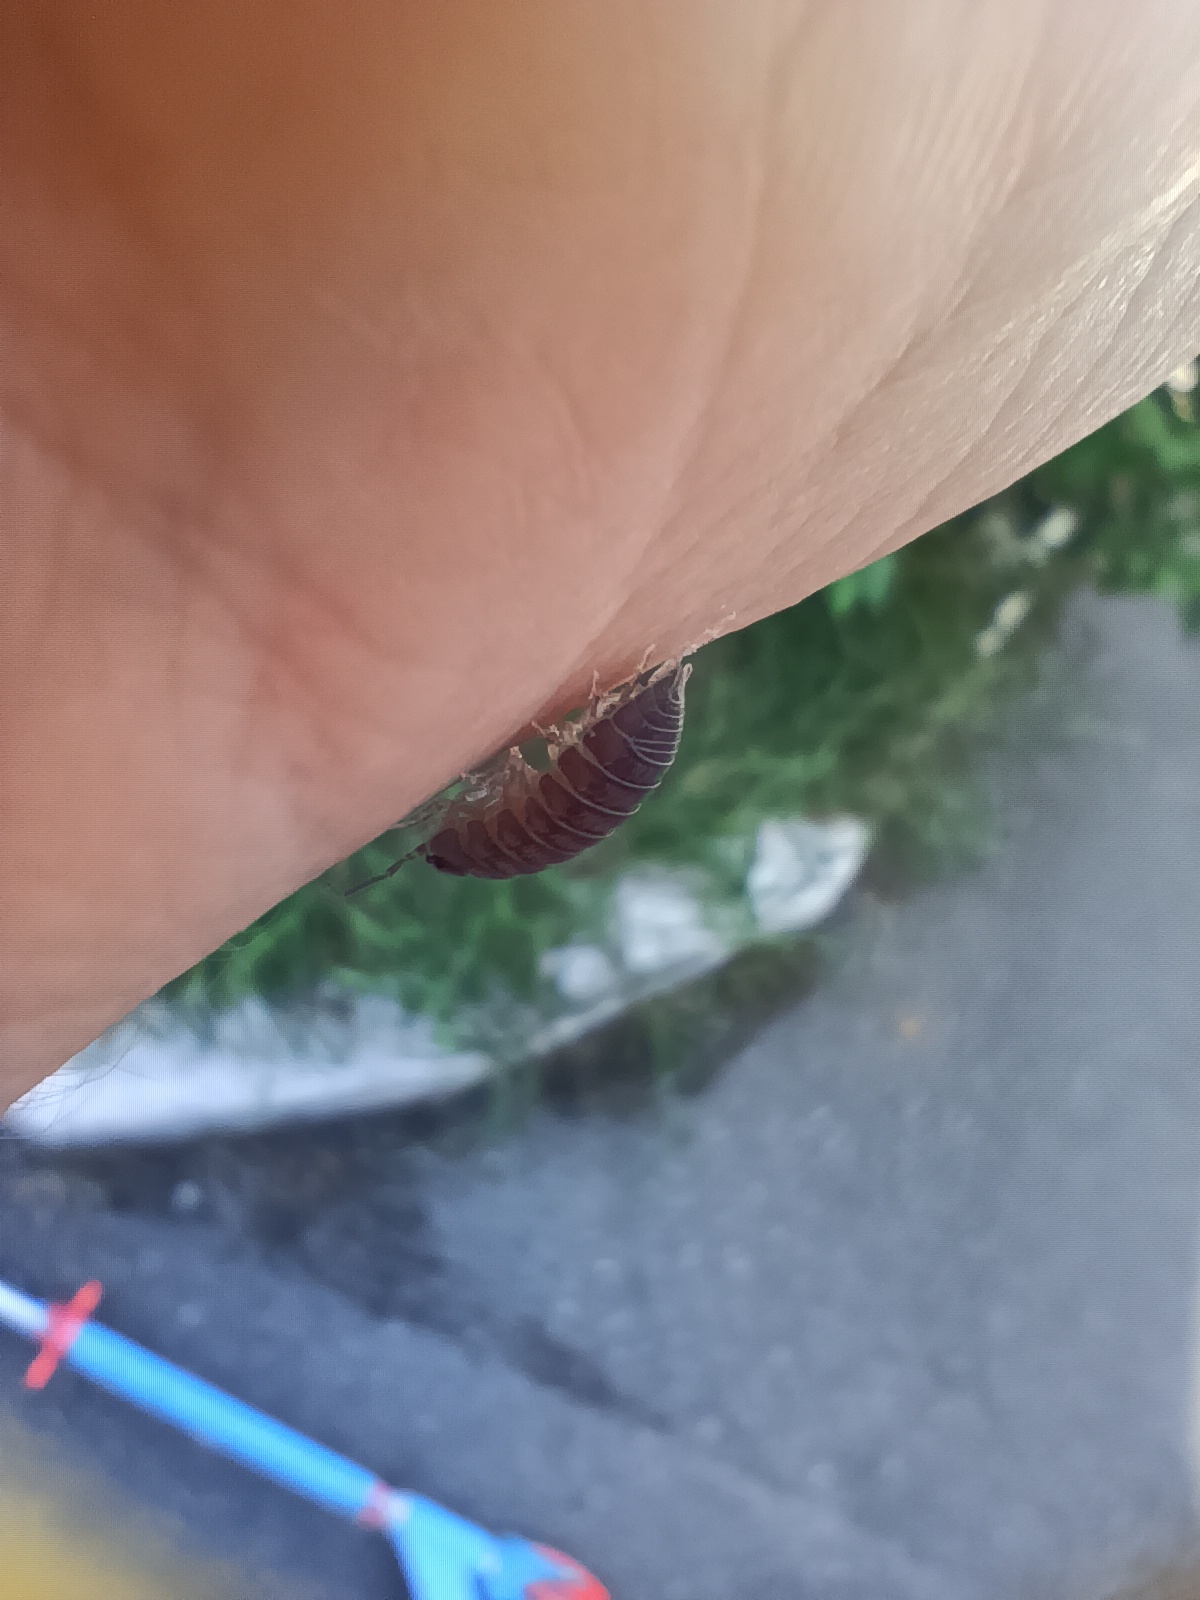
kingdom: Animalia
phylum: Arthropoda
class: Malacostraca
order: Isopoda
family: Armadillidiidae
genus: Armadillidium
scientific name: Armadillidium nasatum
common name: Isopod
